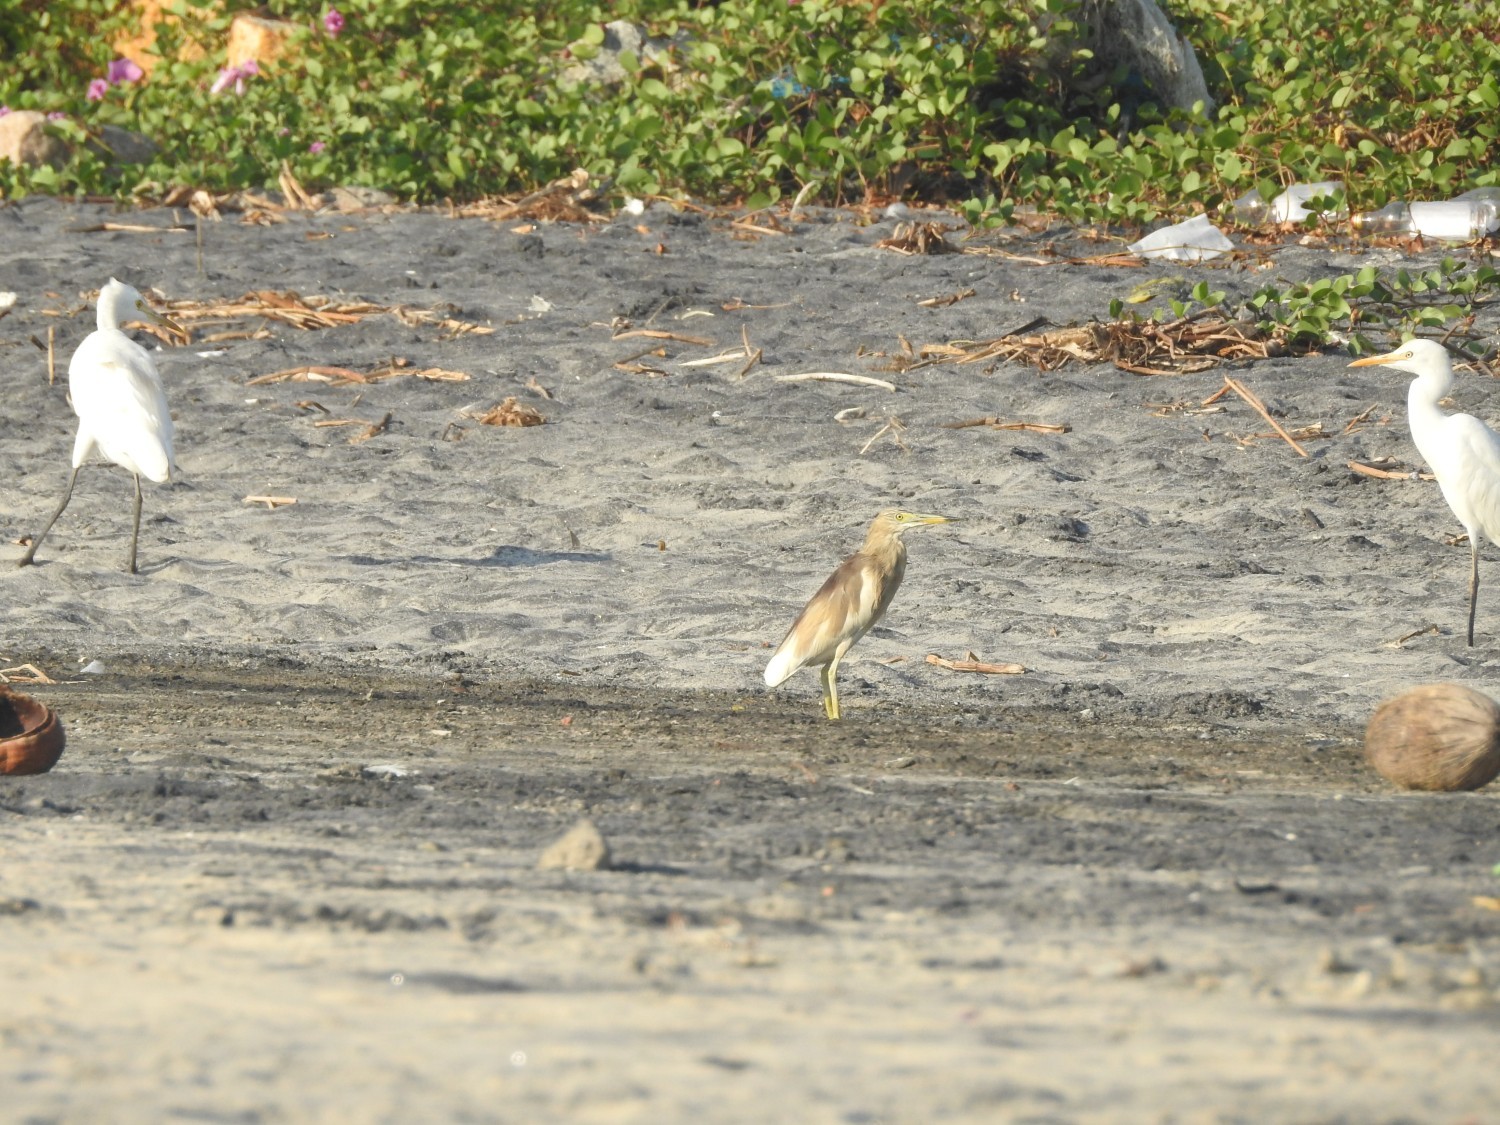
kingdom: Animalia
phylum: Chordata
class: Aves
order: Pelecaniformes
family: Ardeidae
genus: Ardeola
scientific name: Ardeola grayii
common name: Indian pond heron
